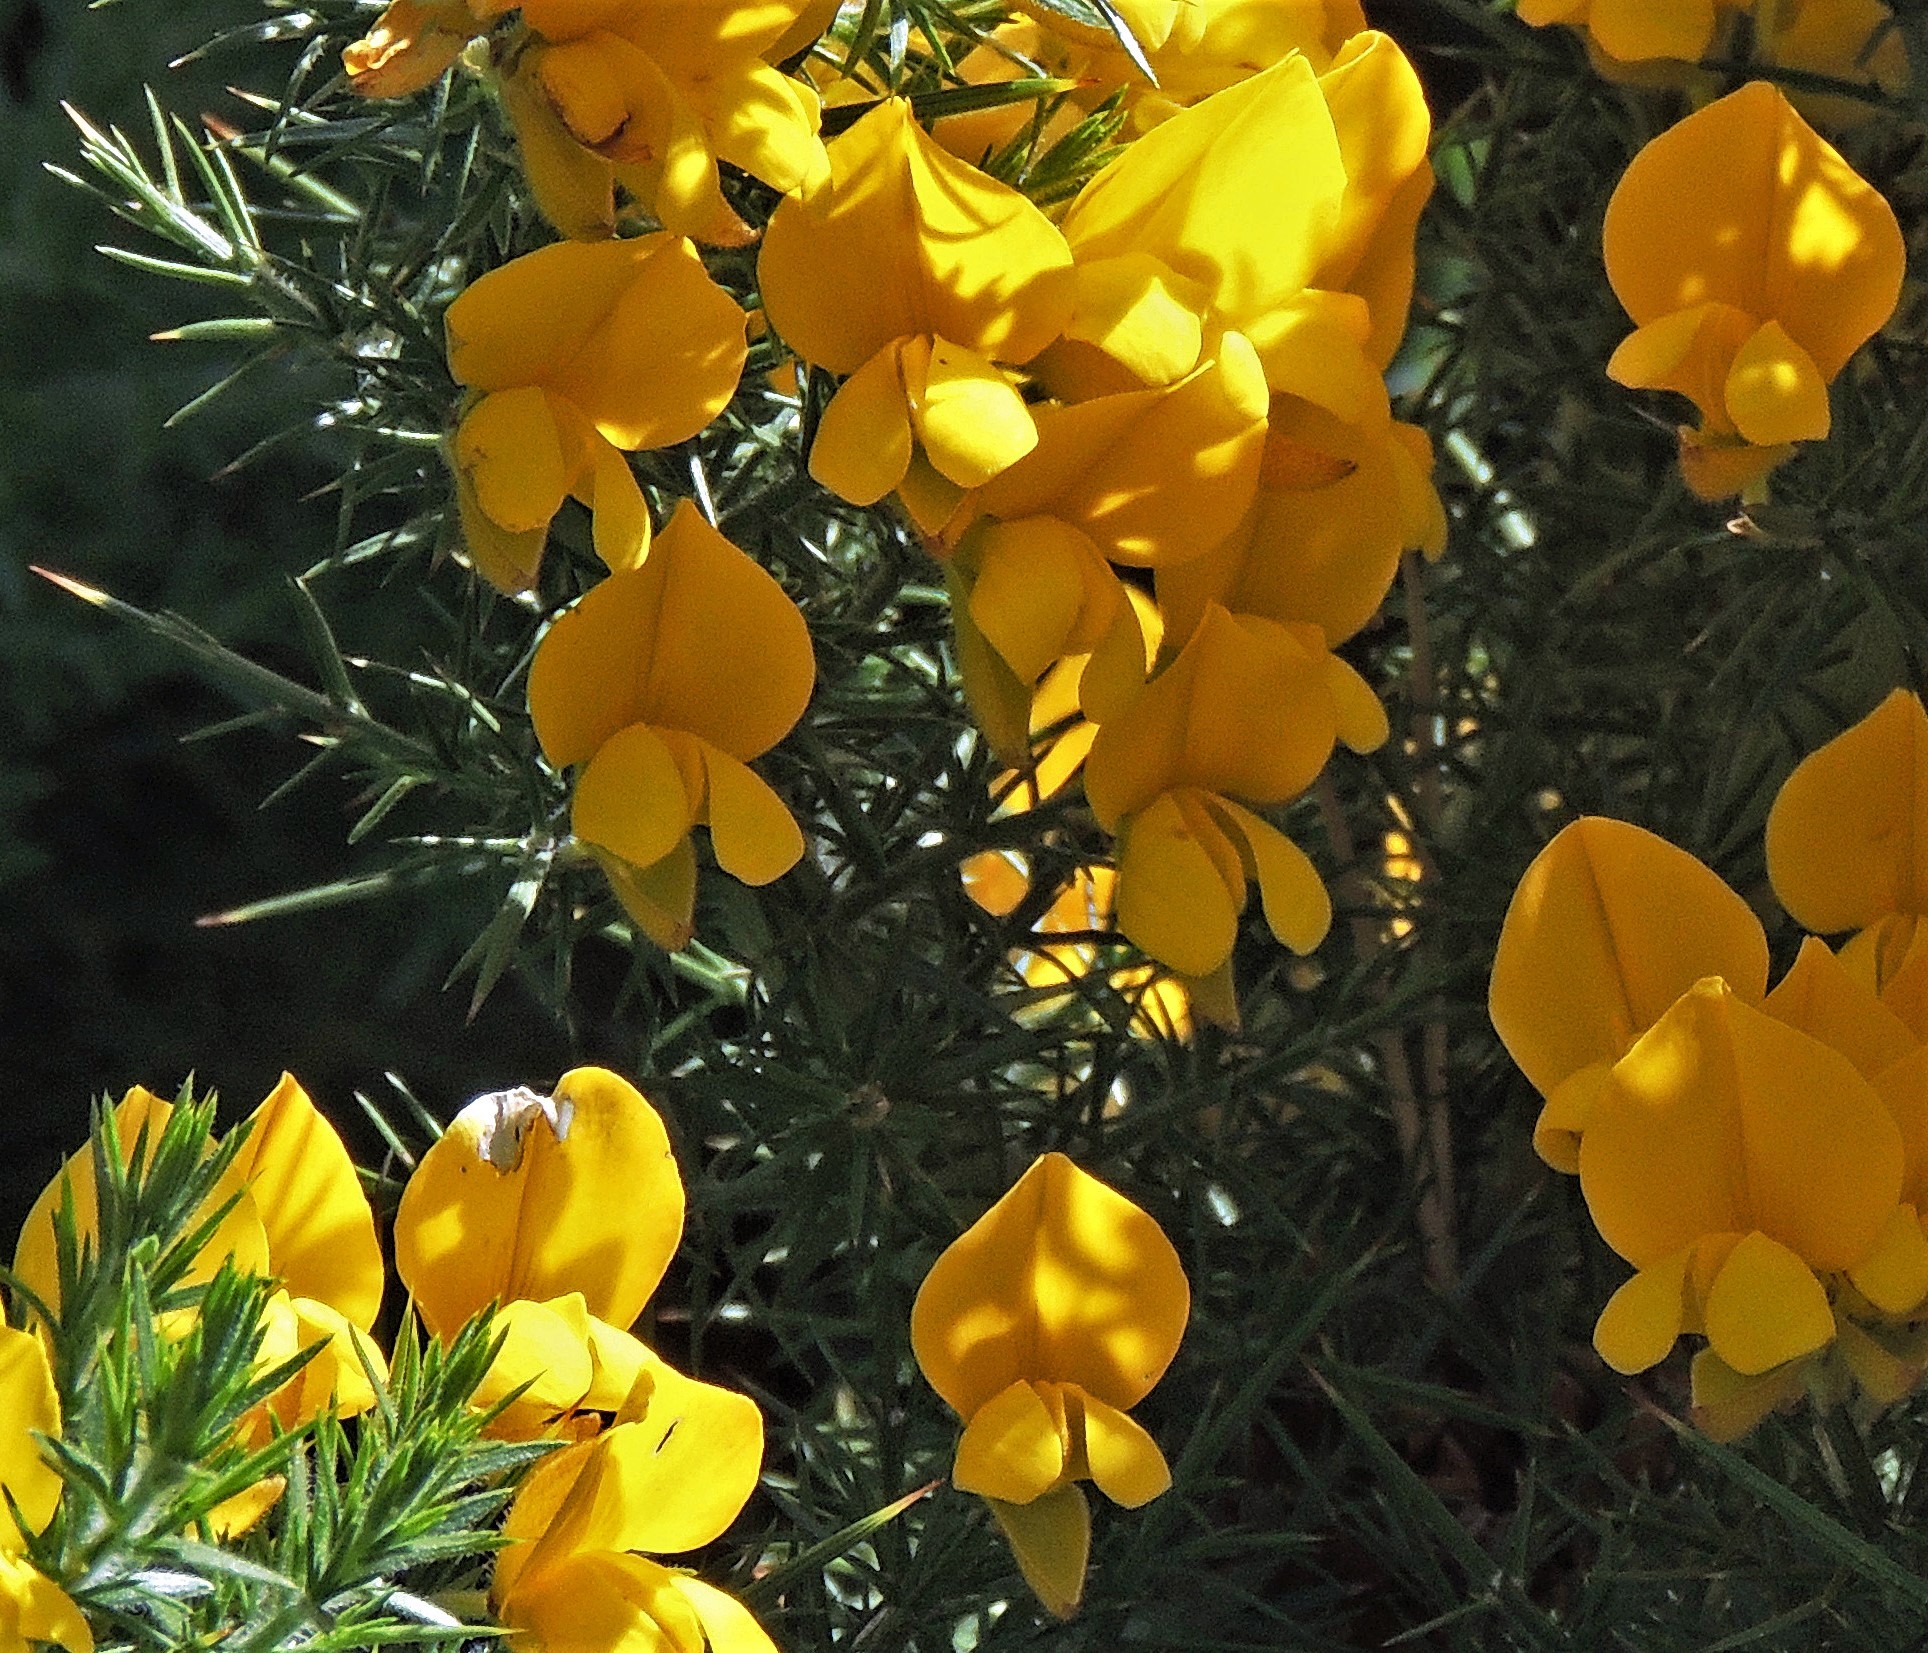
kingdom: Plantae
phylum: Tracheophyta
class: Magnoliopsida
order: Fabales
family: Fabaceae
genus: Ulex
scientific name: Ulex europaeus
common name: Common gorse
